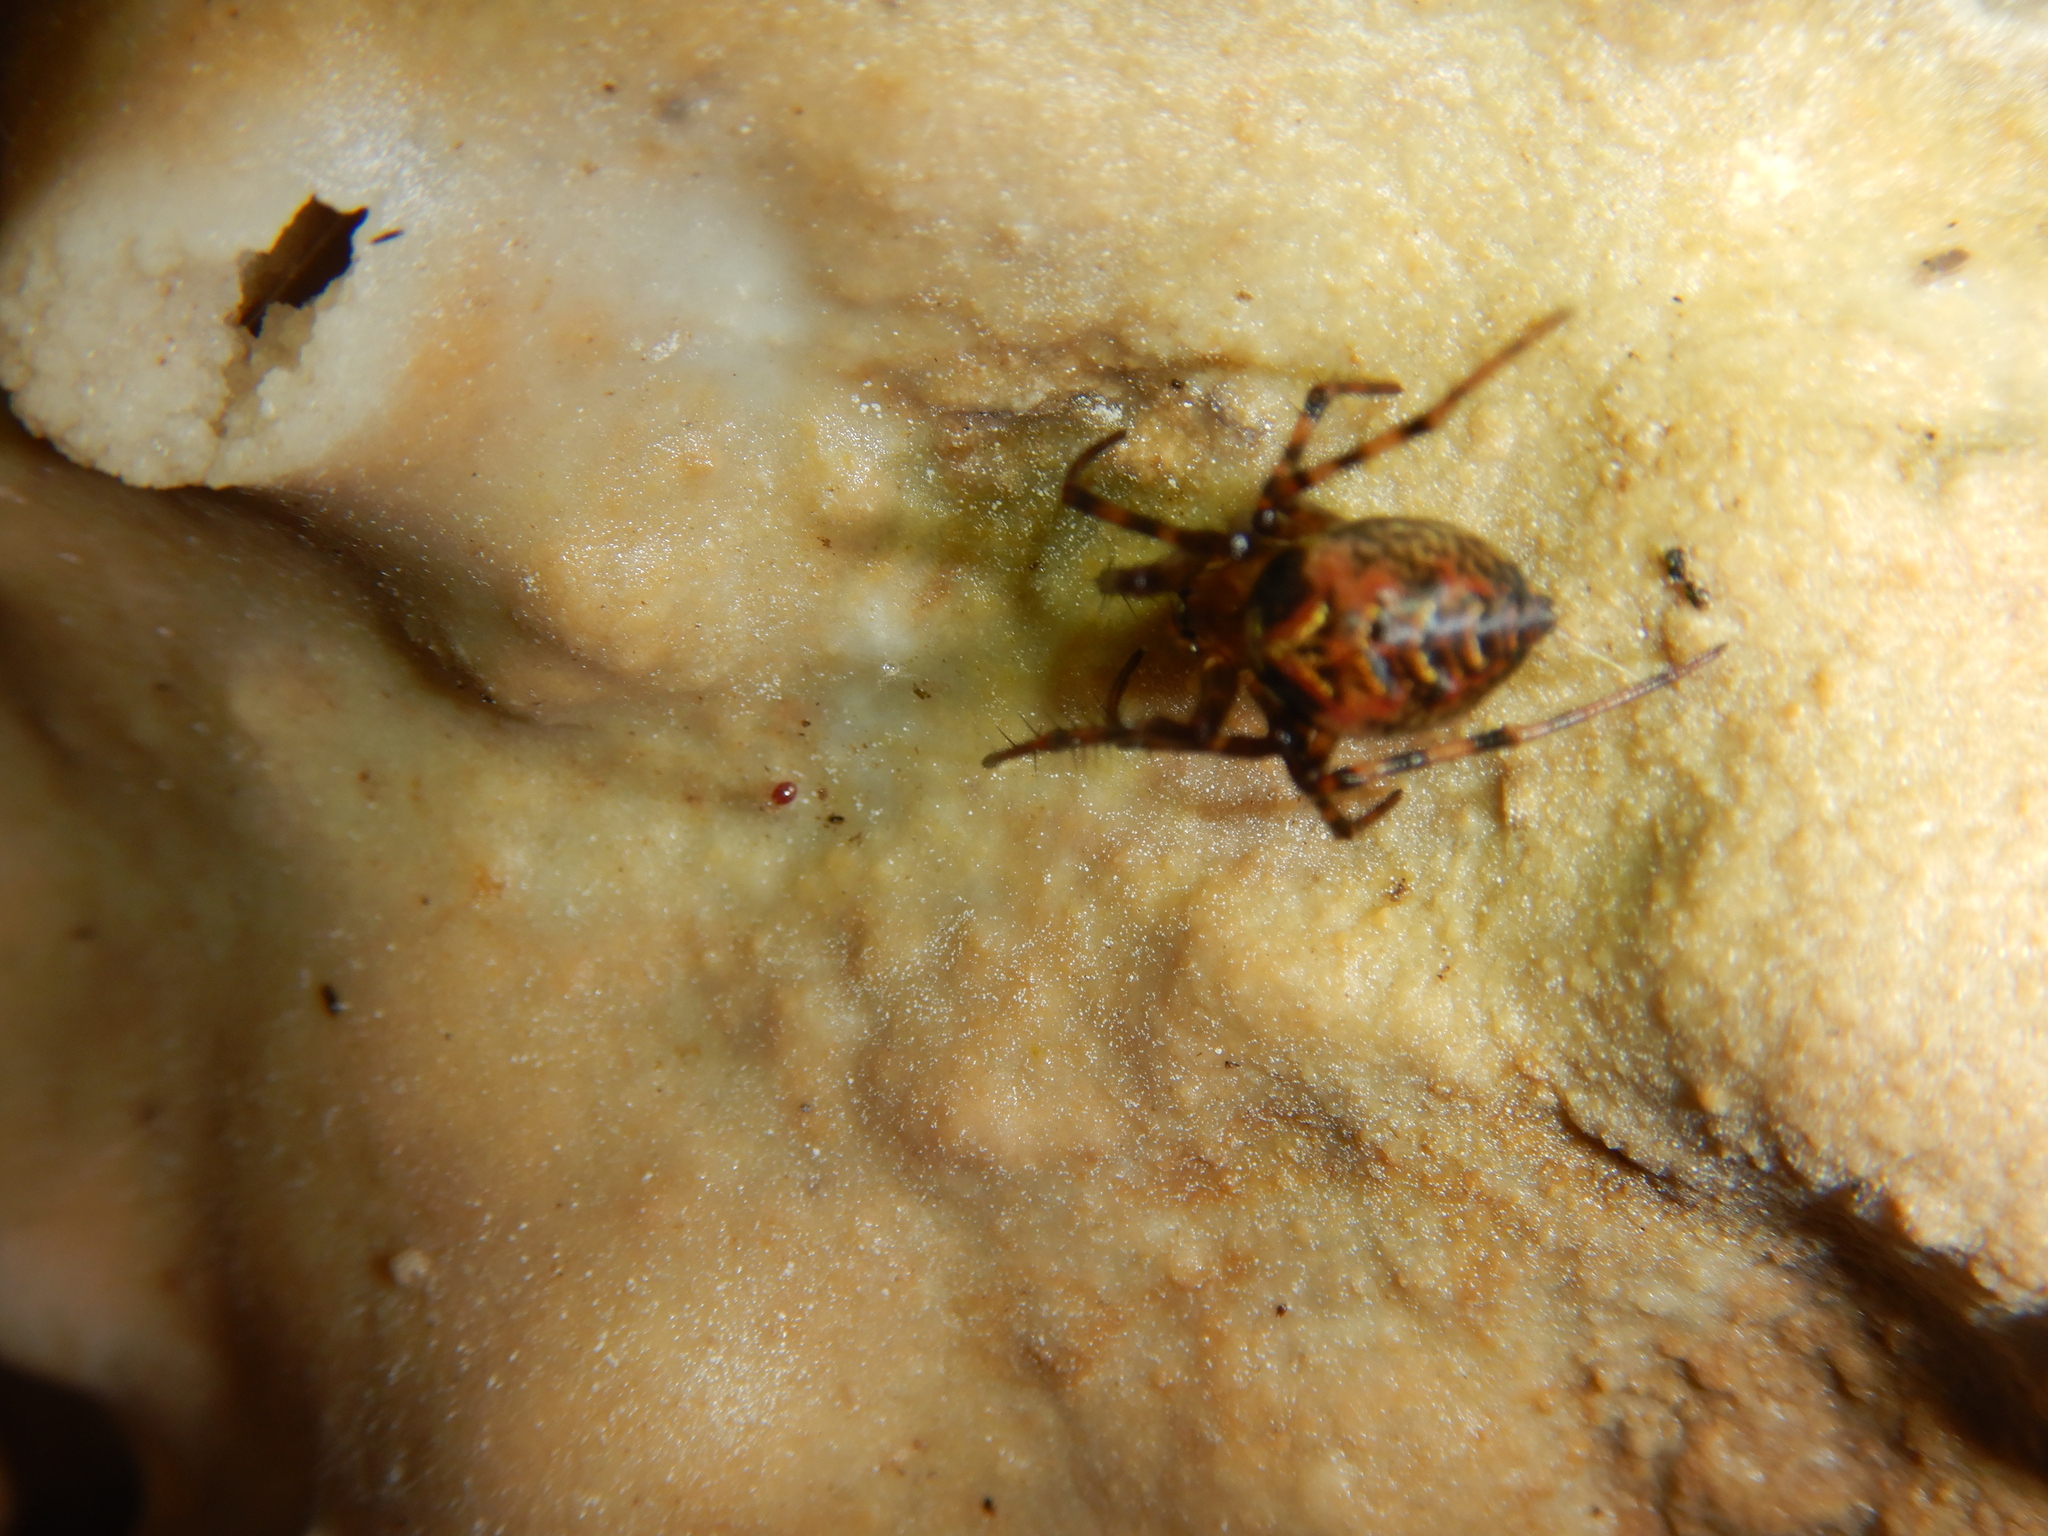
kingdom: Animalia
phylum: Arthropoda
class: Arachnida
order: Araneae
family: Tetragnathidae
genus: Meta
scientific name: Meta menardi
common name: Cave spider
